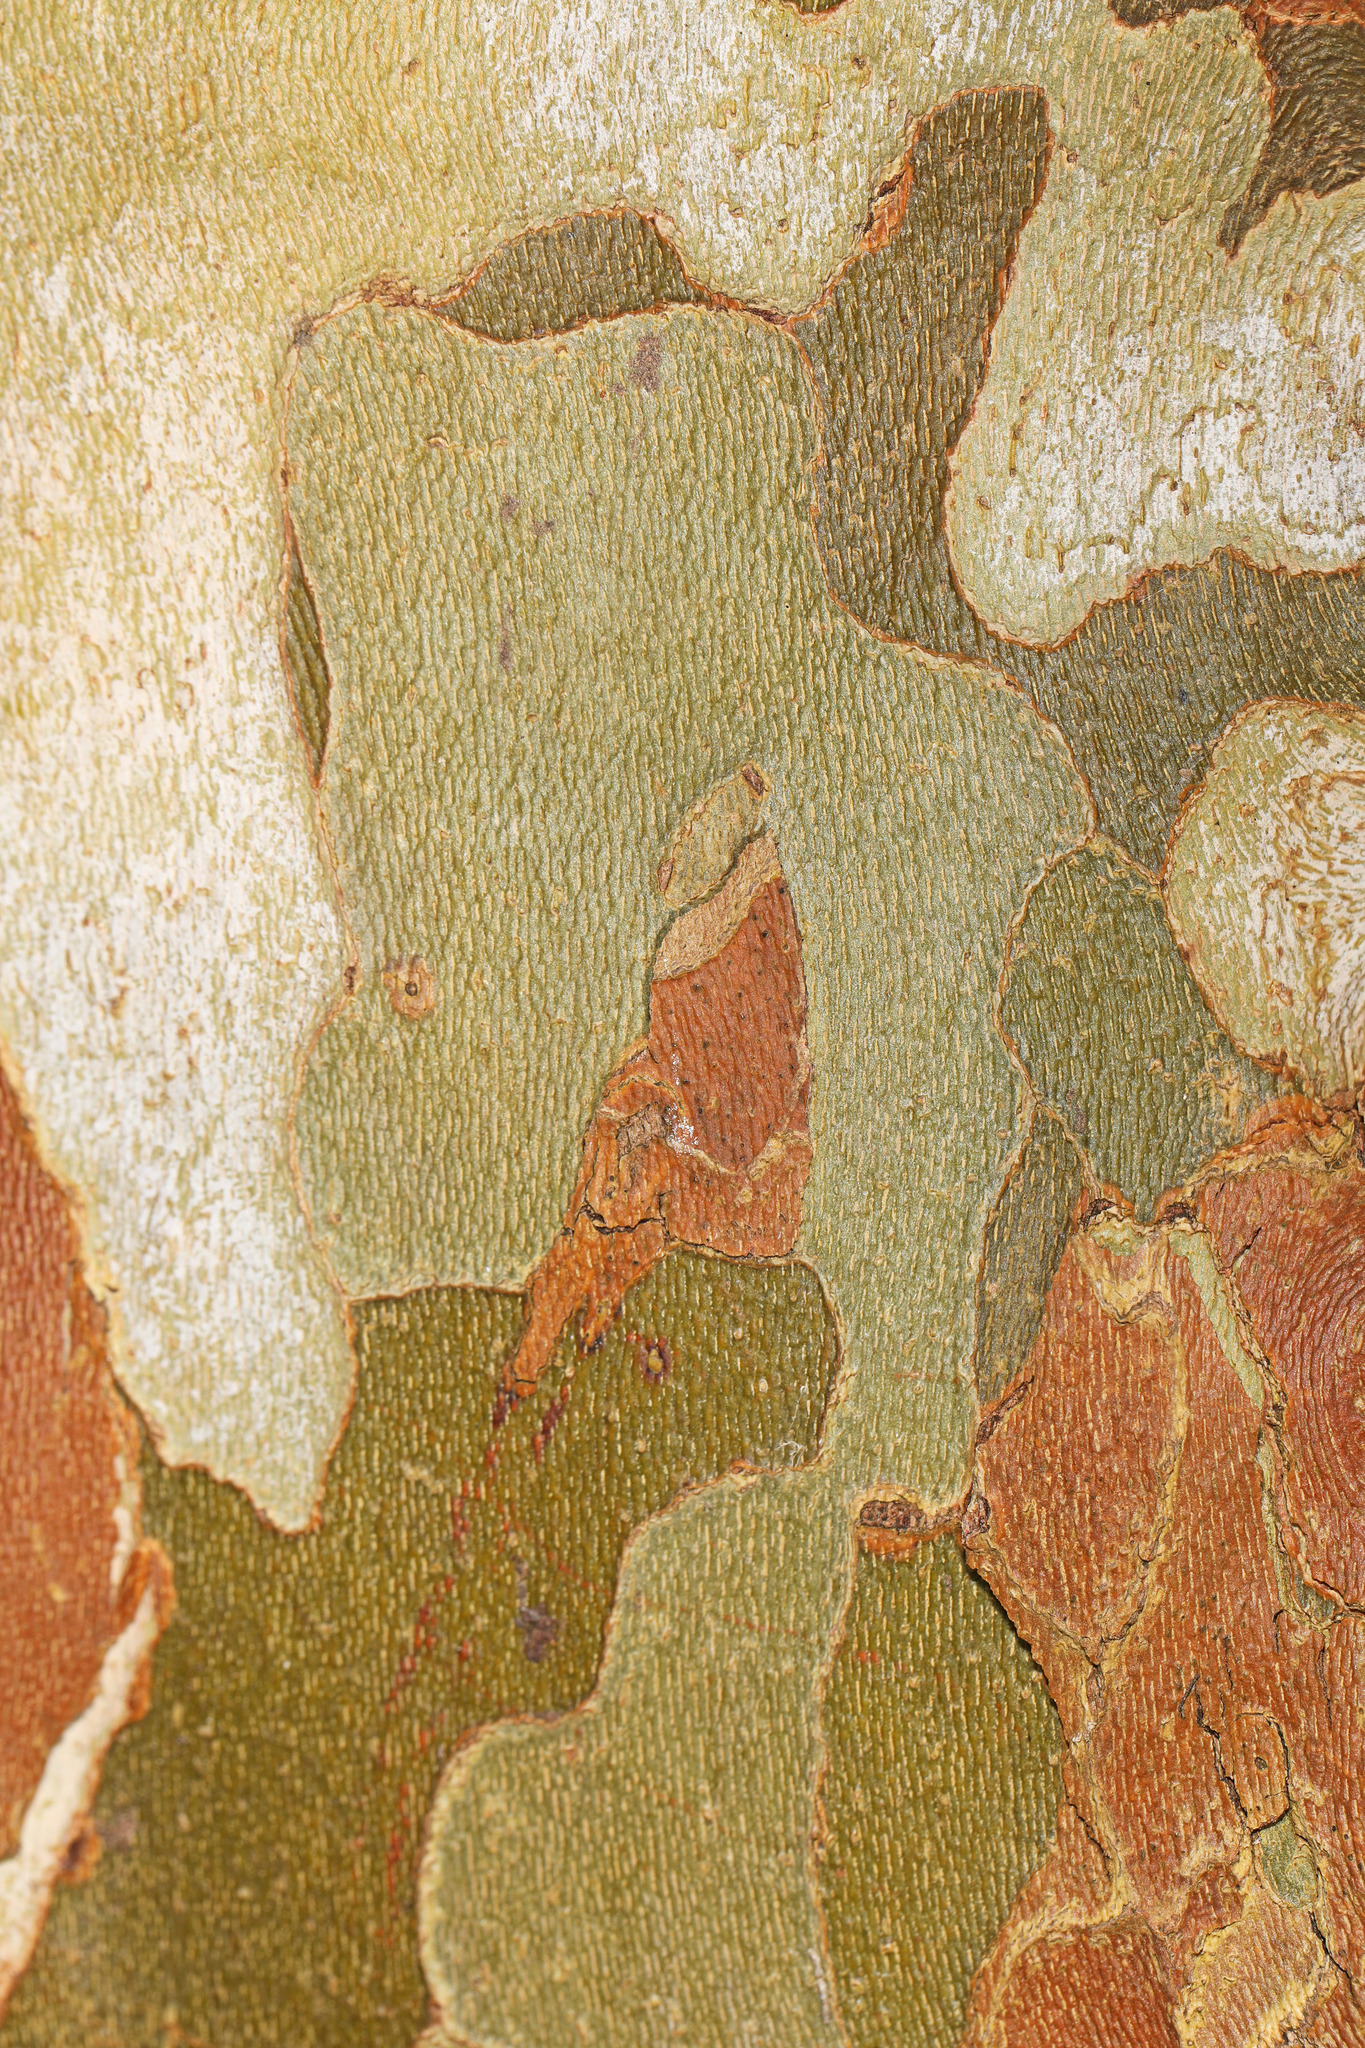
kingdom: Plantae
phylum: Tracheophyta
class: Magnoliopsida
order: Proteales
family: Platanaceae
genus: Platanus
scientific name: Platanus occidentalis
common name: American sycamore
